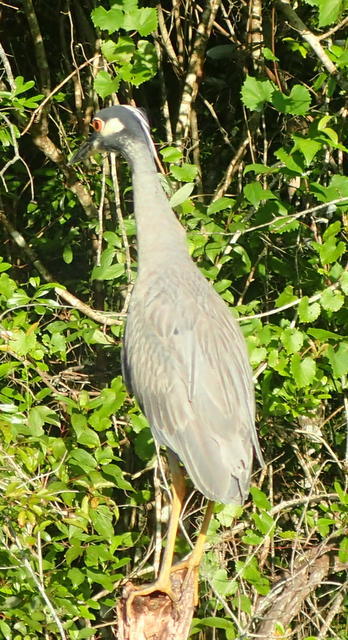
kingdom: Animalia
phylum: Chordata
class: Aves
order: Pelecaniformes
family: Ardeidae
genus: Nyctanassa
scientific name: Nyctanassa violacea
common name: Yellow-crowned night heron
